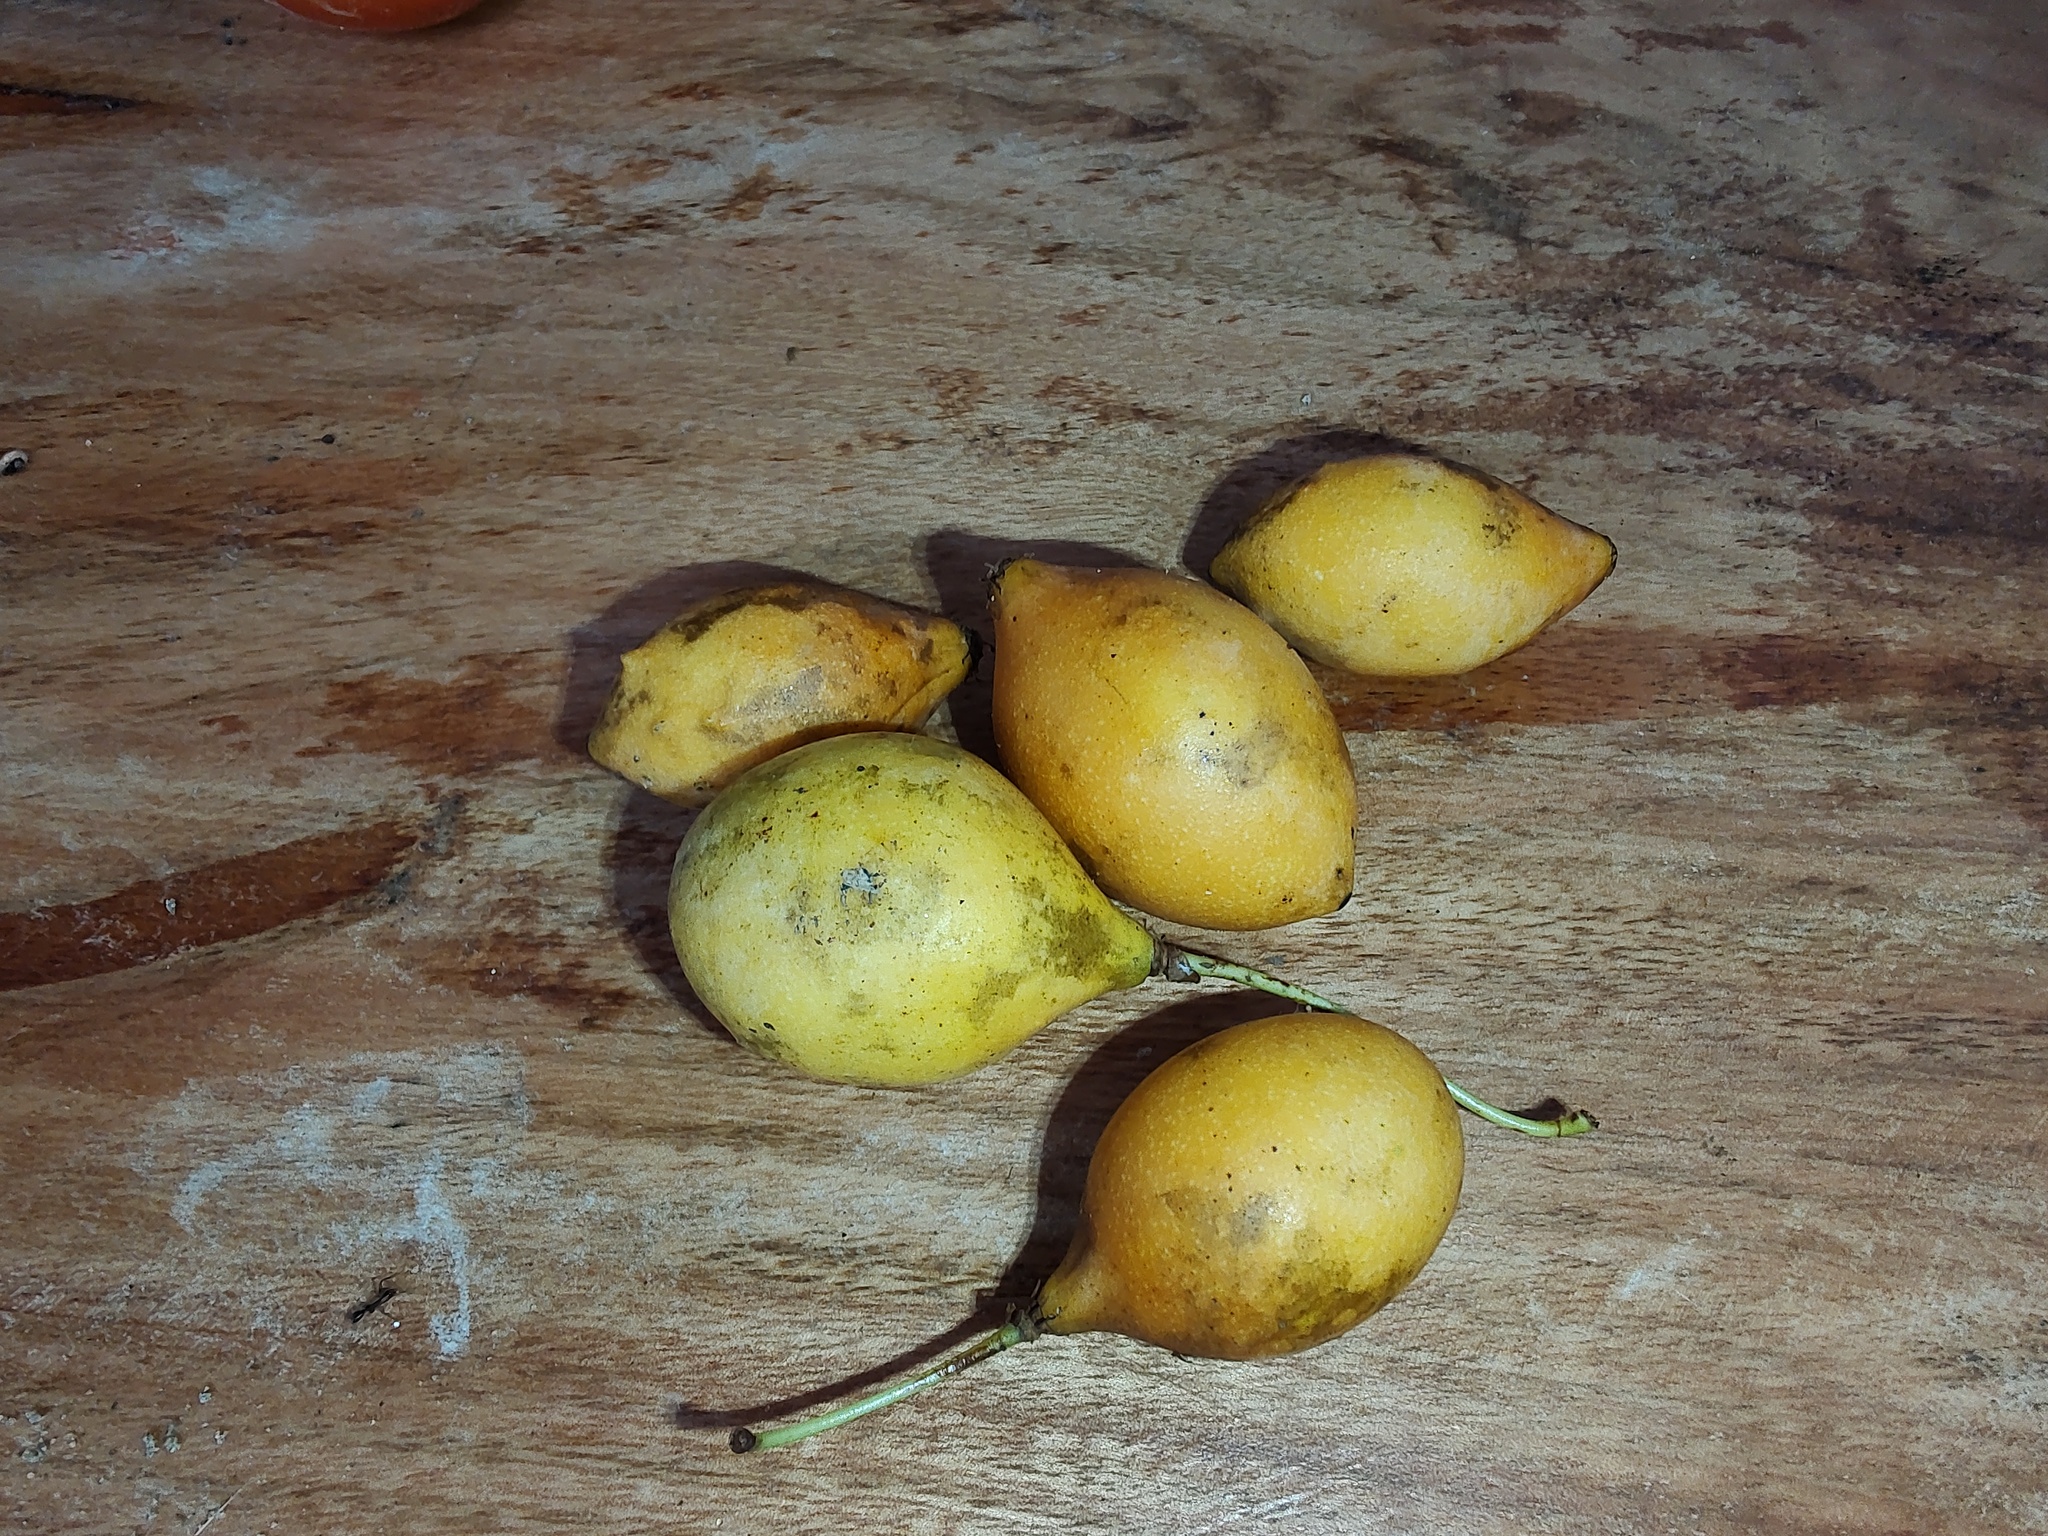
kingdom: Plantae
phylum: Tracheophyta
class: Magnoliopsida
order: Malpighiales
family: Clusiaceae
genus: Garcinia
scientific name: Garcinia gardneriana
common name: Achacha
